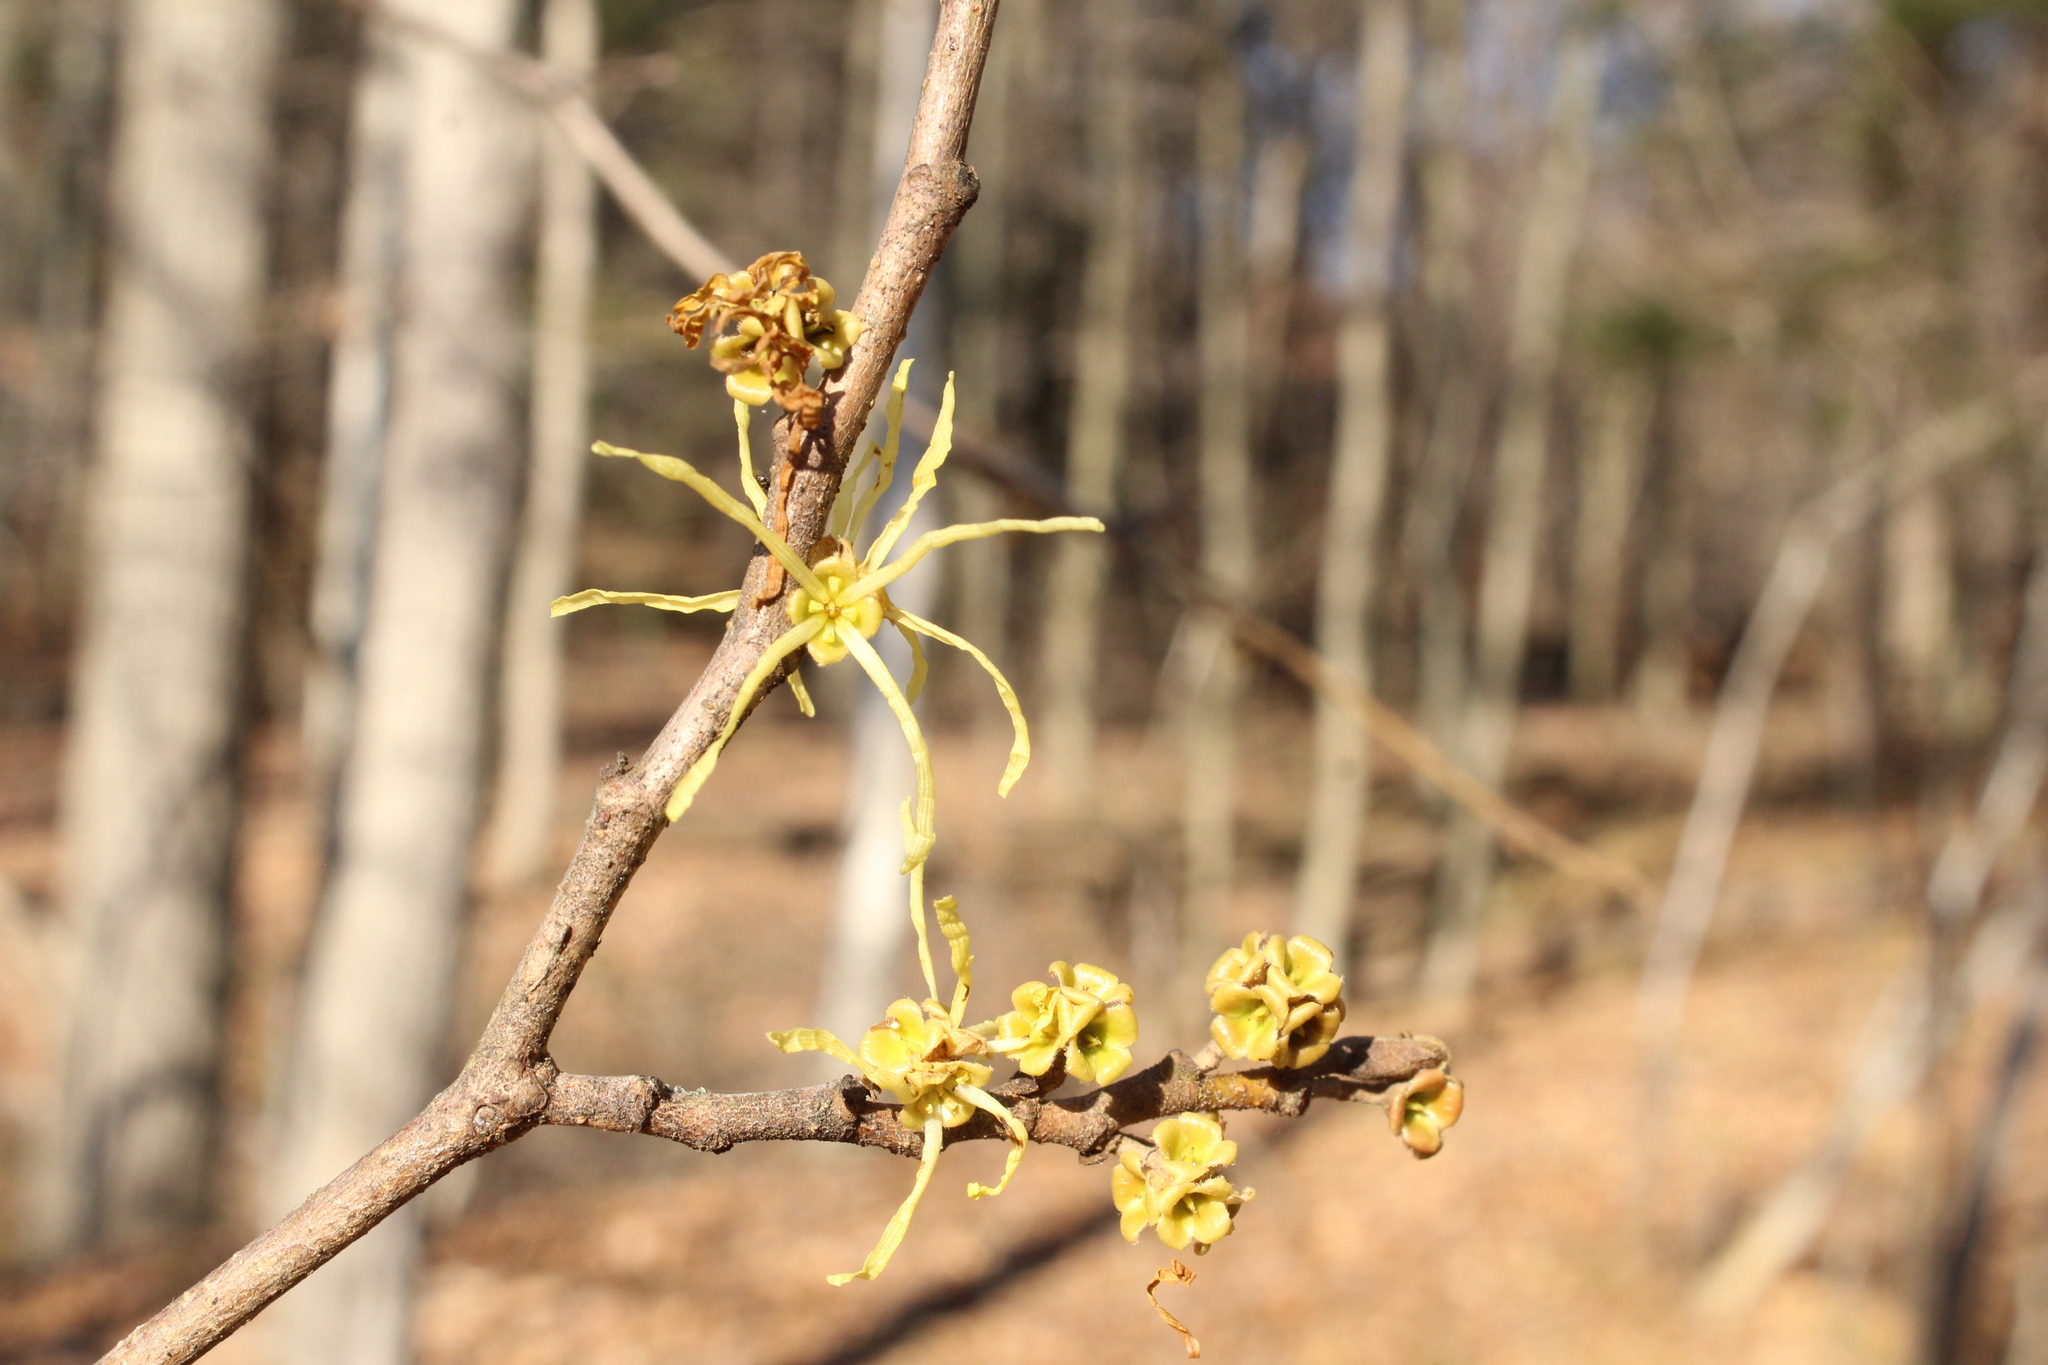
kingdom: Plantae
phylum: Tracheophyta
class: Magnoliopsida
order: Saxifragales
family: Hamamelidaceae
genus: Hamamelis
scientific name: Hamamelis virginiana
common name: Witch-hazel
